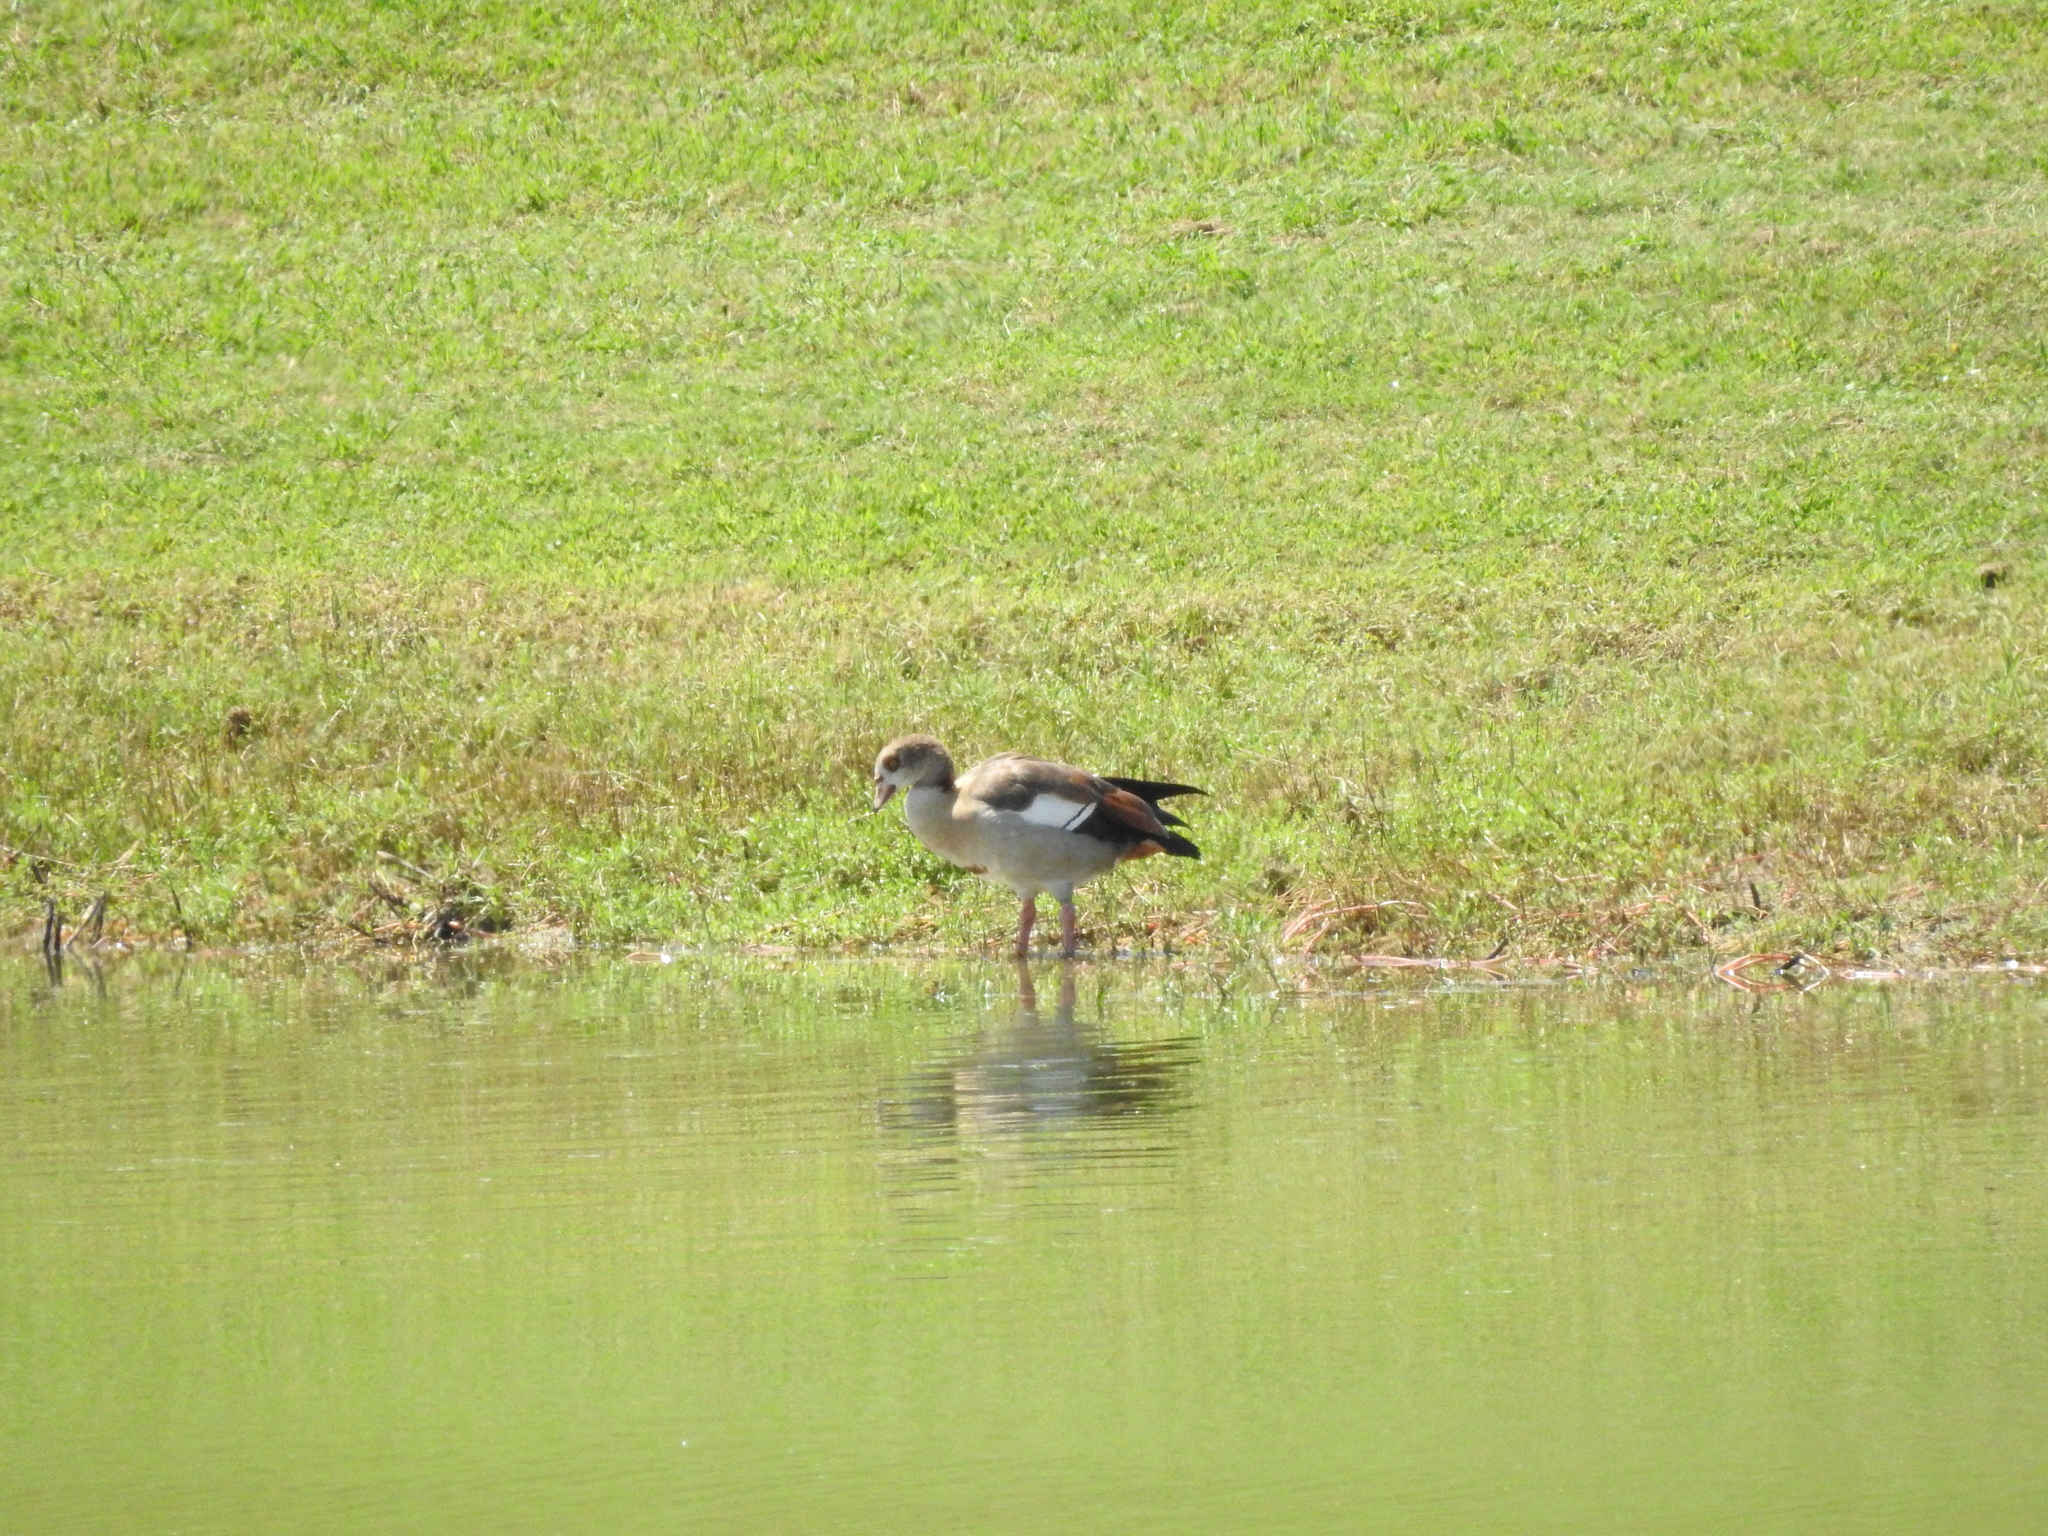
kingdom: Animalia
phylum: Chordata
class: Aves
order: Anseriformes
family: Anatidae
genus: Alopochen
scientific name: Alopochen aegyptiaca
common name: Egyptian goose
